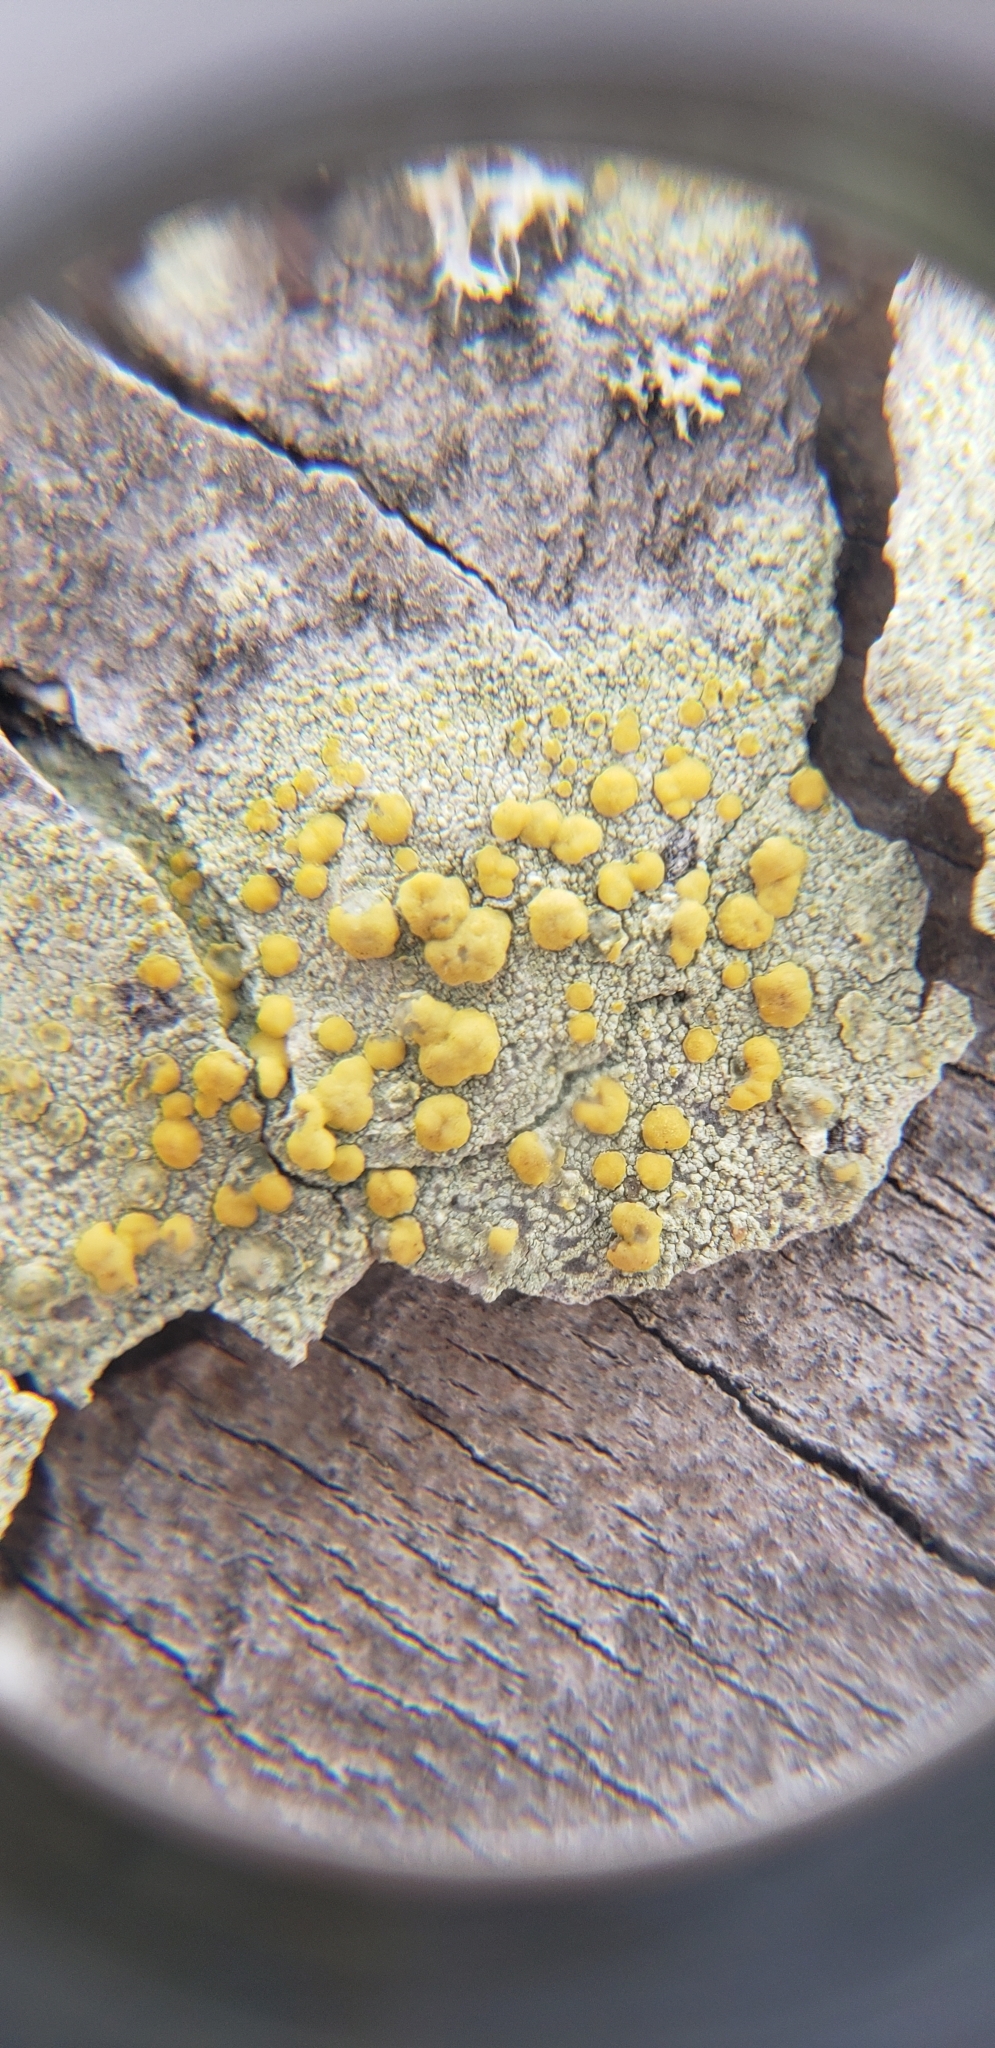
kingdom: Fungi
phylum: Ascomycota
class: Lecanoromycetes
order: Lecanorales
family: Lecanoraceae
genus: Lecanora
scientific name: Lecanora symmicta
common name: Fused rim lichen
